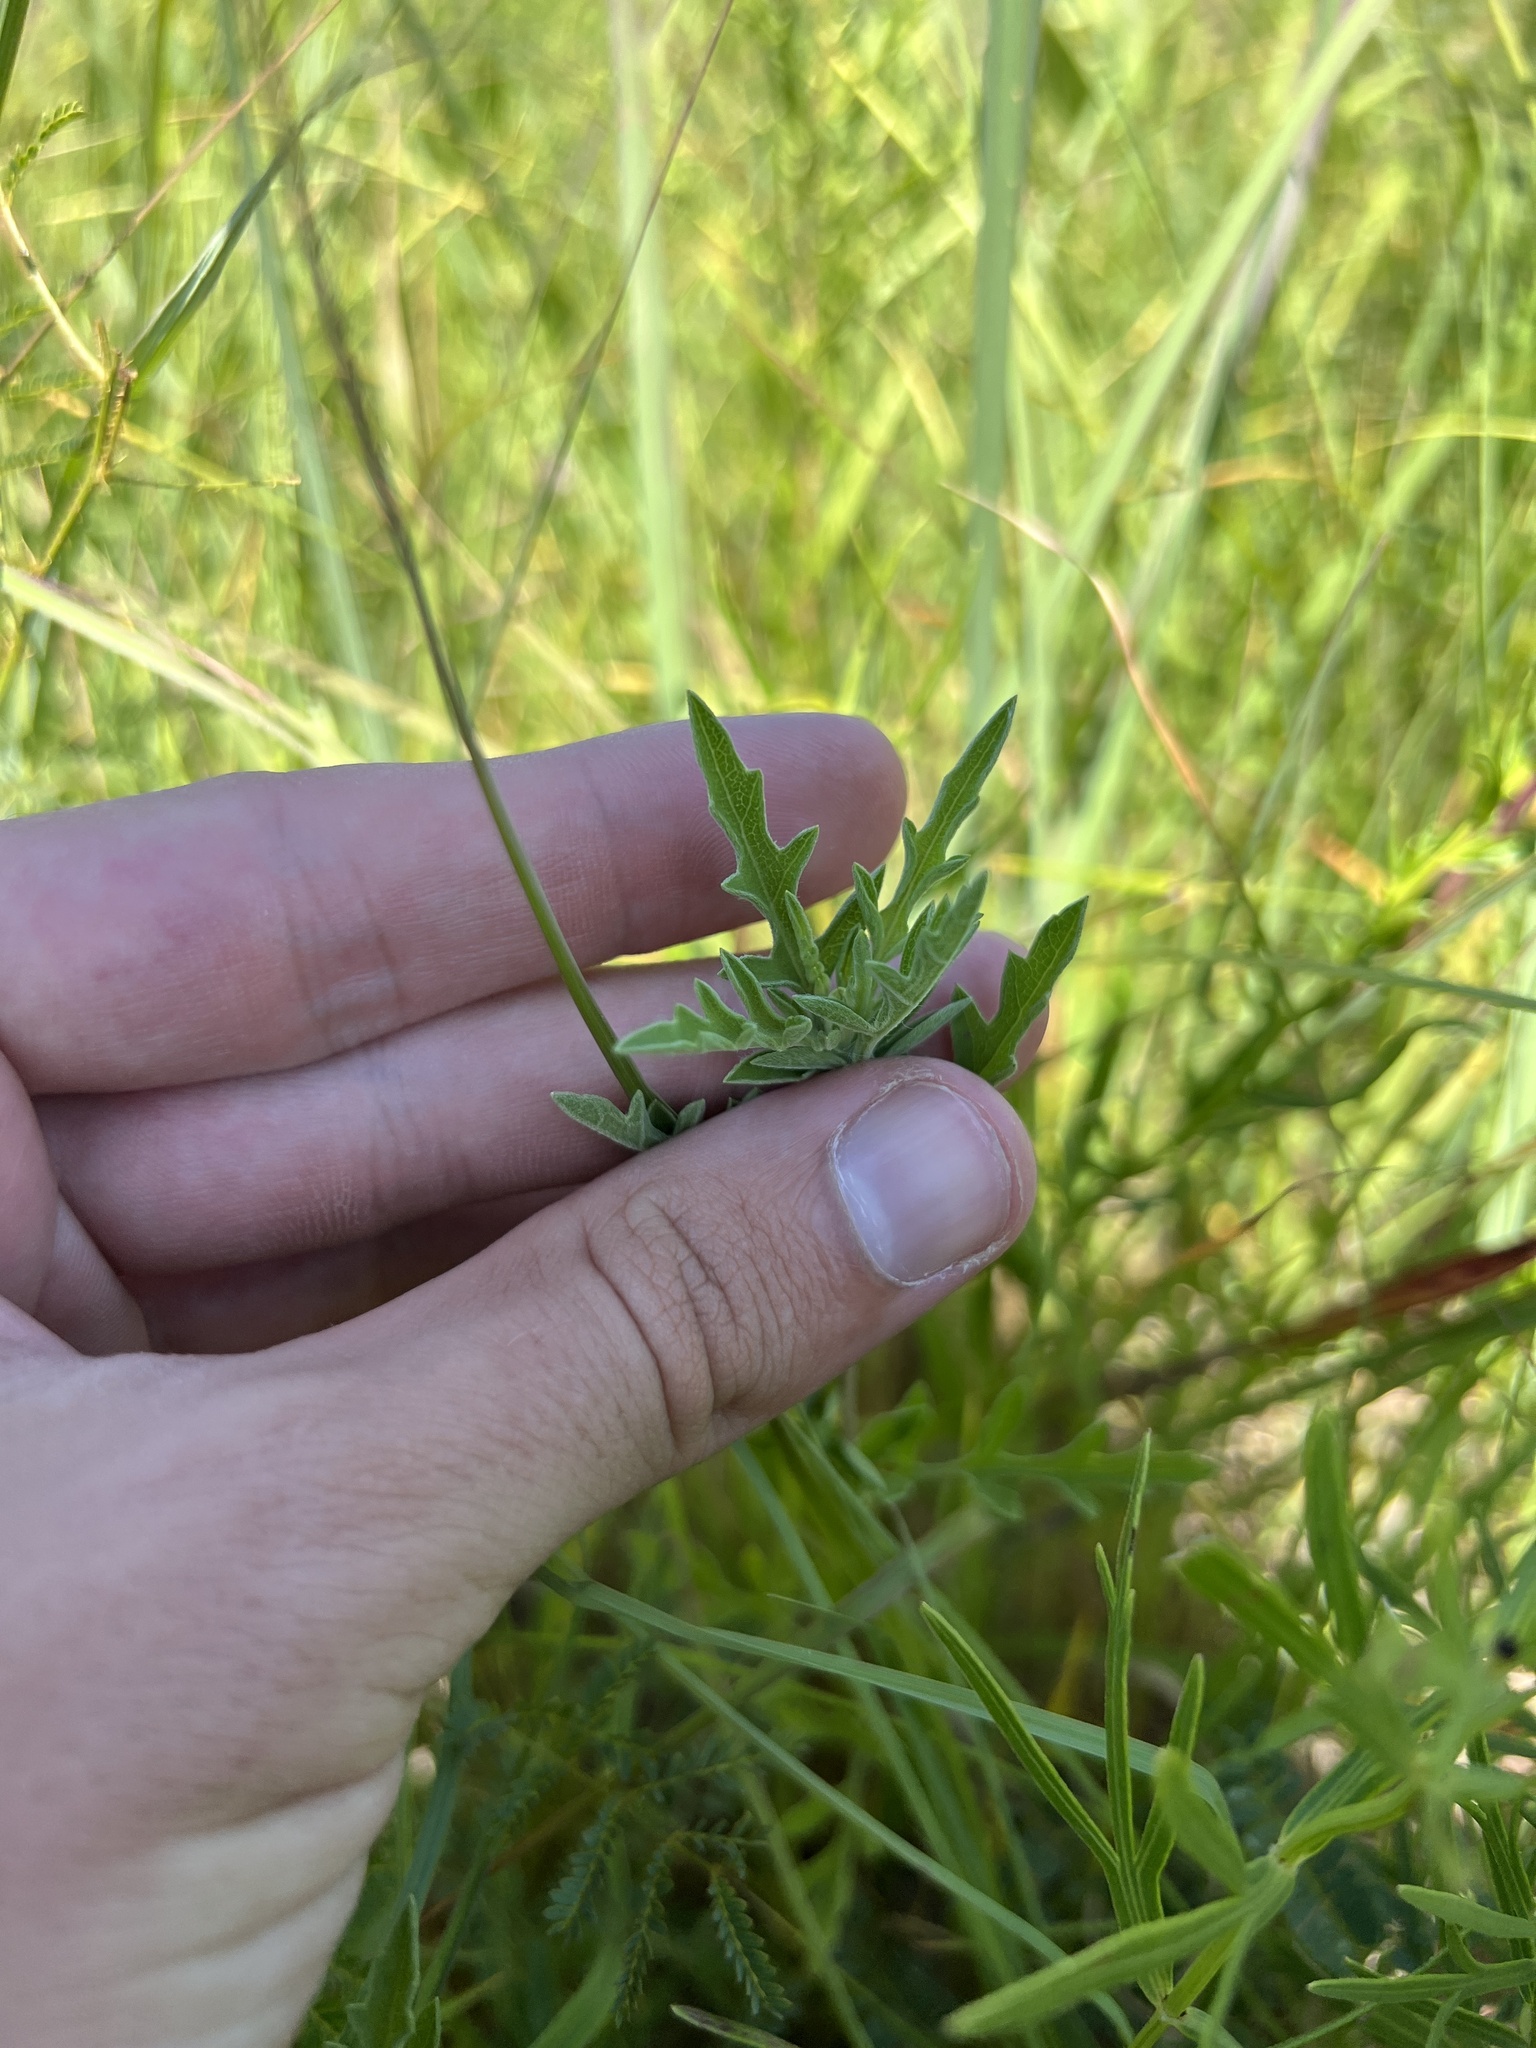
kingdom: Plantae
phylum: Tracheophyta
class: Magnoliopsida
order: Asterales
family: Asteraceae
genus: Ambrosia
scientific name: Ambrosia psilostachya
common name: Perennial ragweed
